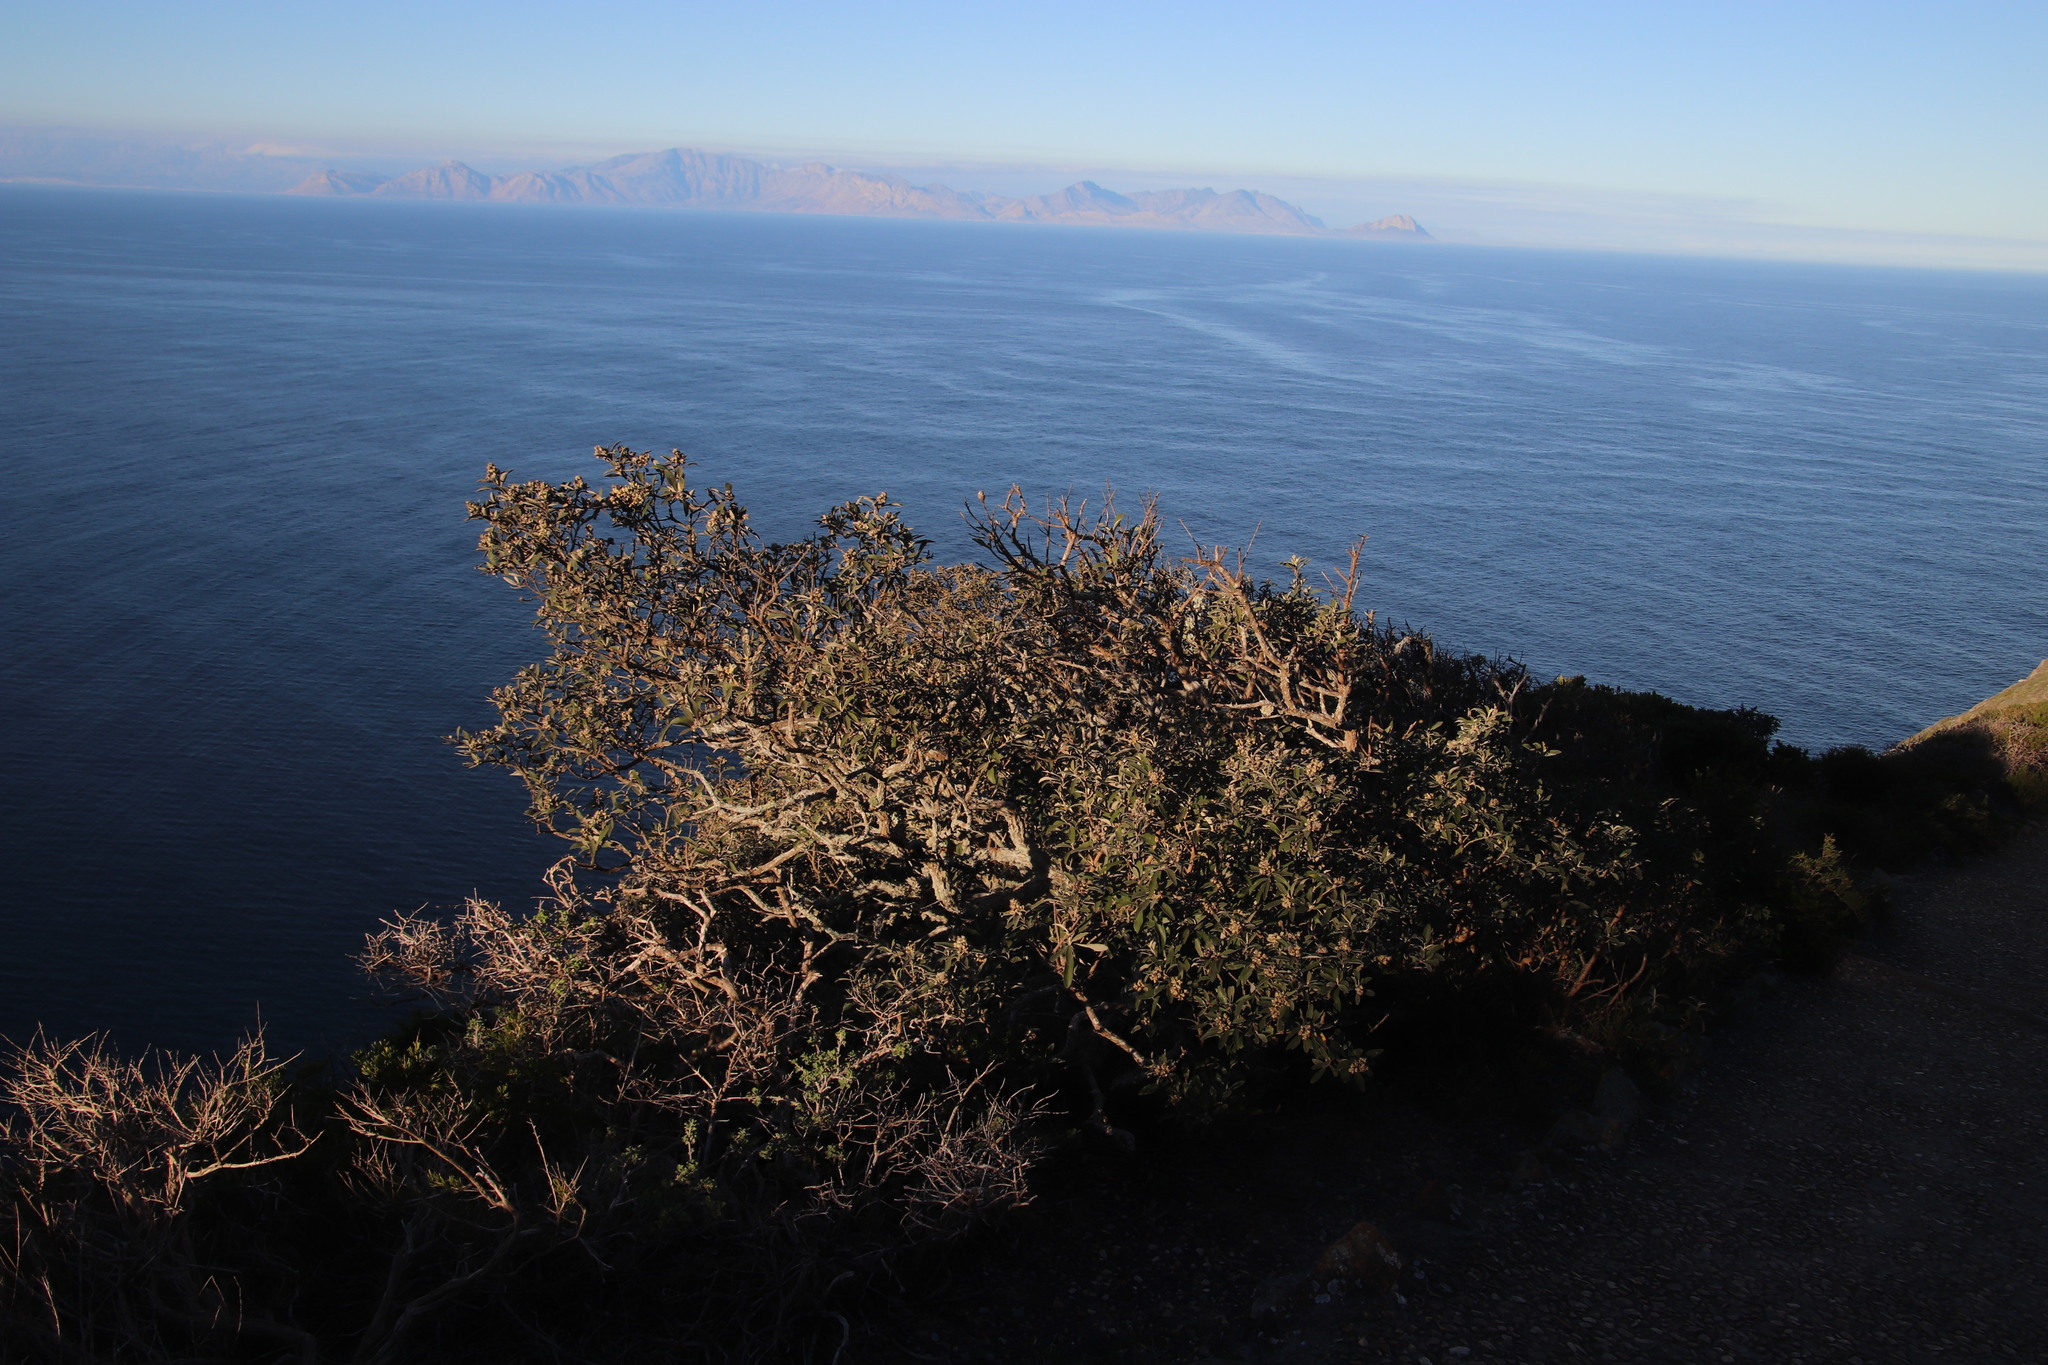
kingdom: Plantae
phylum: Tracheophyta
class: Magnoliopsida
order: Asterales
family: Asteraceae
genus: Tarchonanthus
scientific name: Tarchonanthus littoralis
